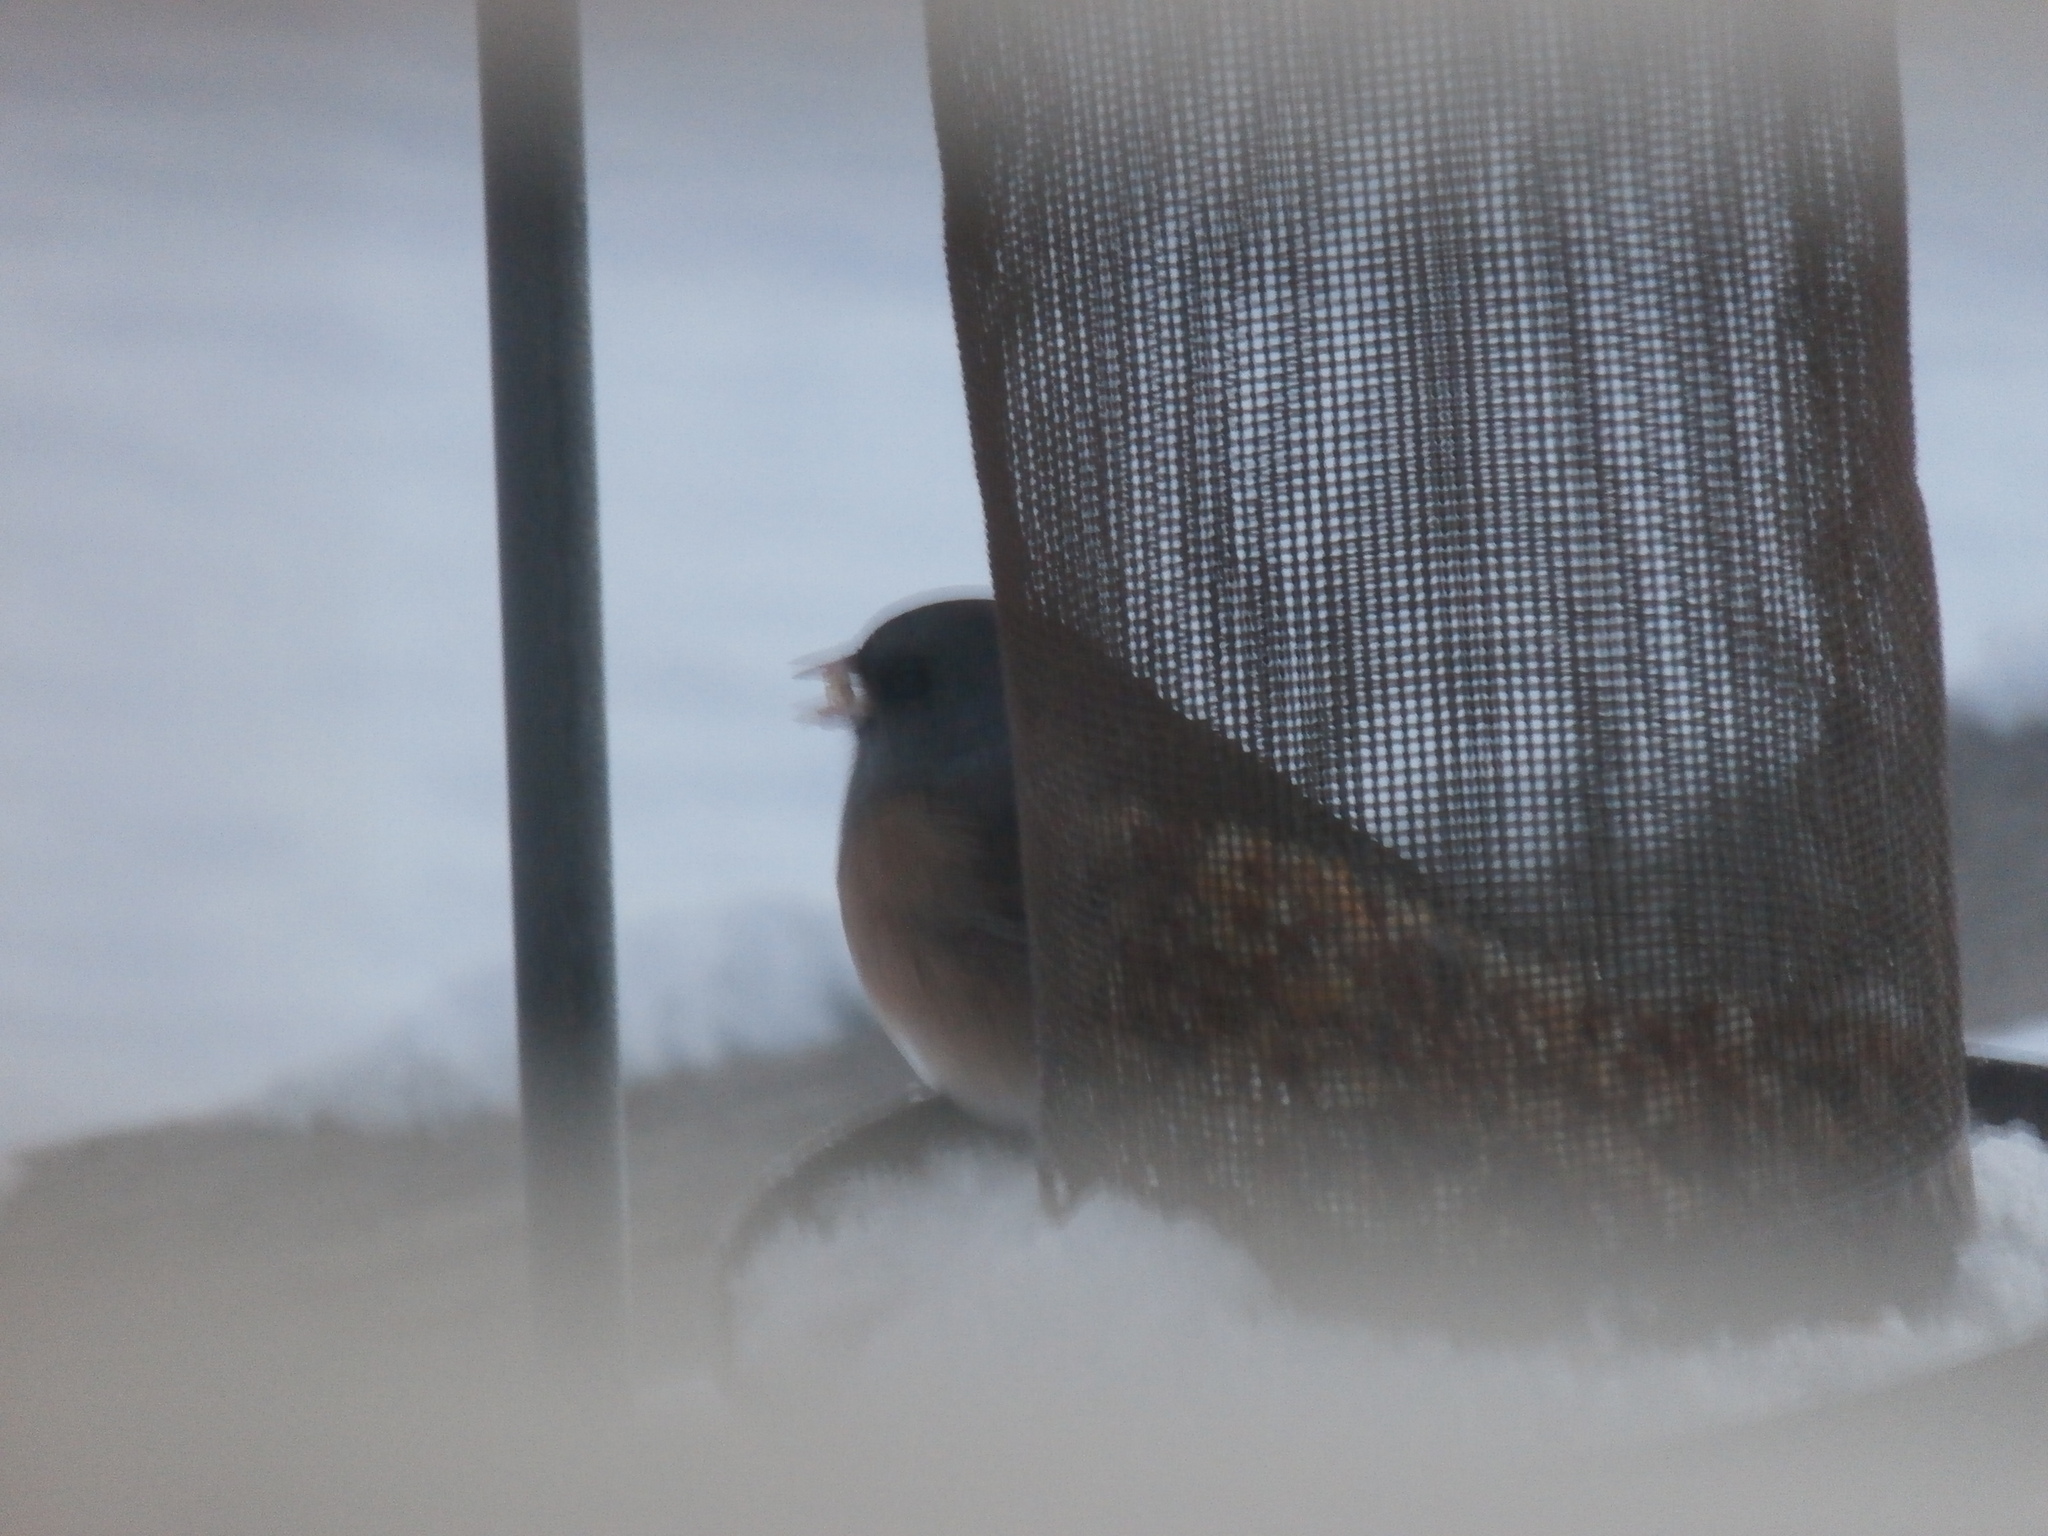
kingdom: Animalia
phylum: Chordata
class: Aves
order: Passeriformes
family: Passerellidae
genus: Junco
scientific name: Junco hyemalis
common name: Dark-eyed junco
